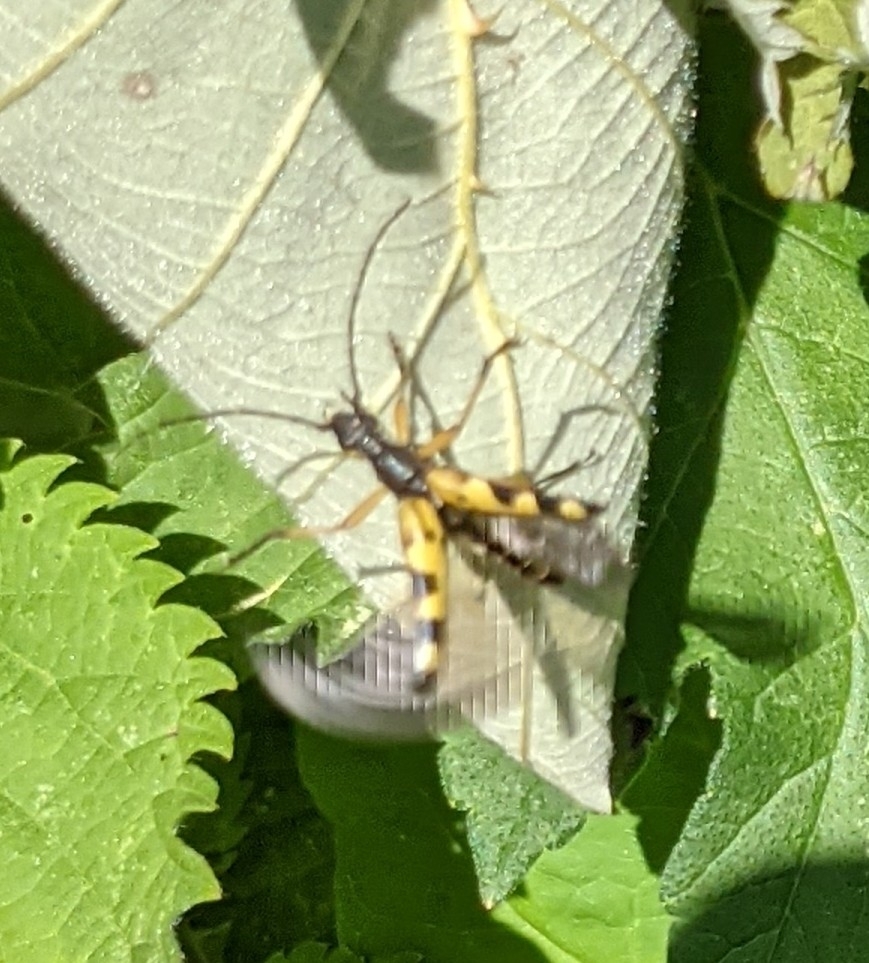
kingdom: Animalia
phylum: Arthropoda
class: Insecta
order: Coleoptera
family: Cerambycidae
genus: Rutpela
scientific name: Rutpela maculata
